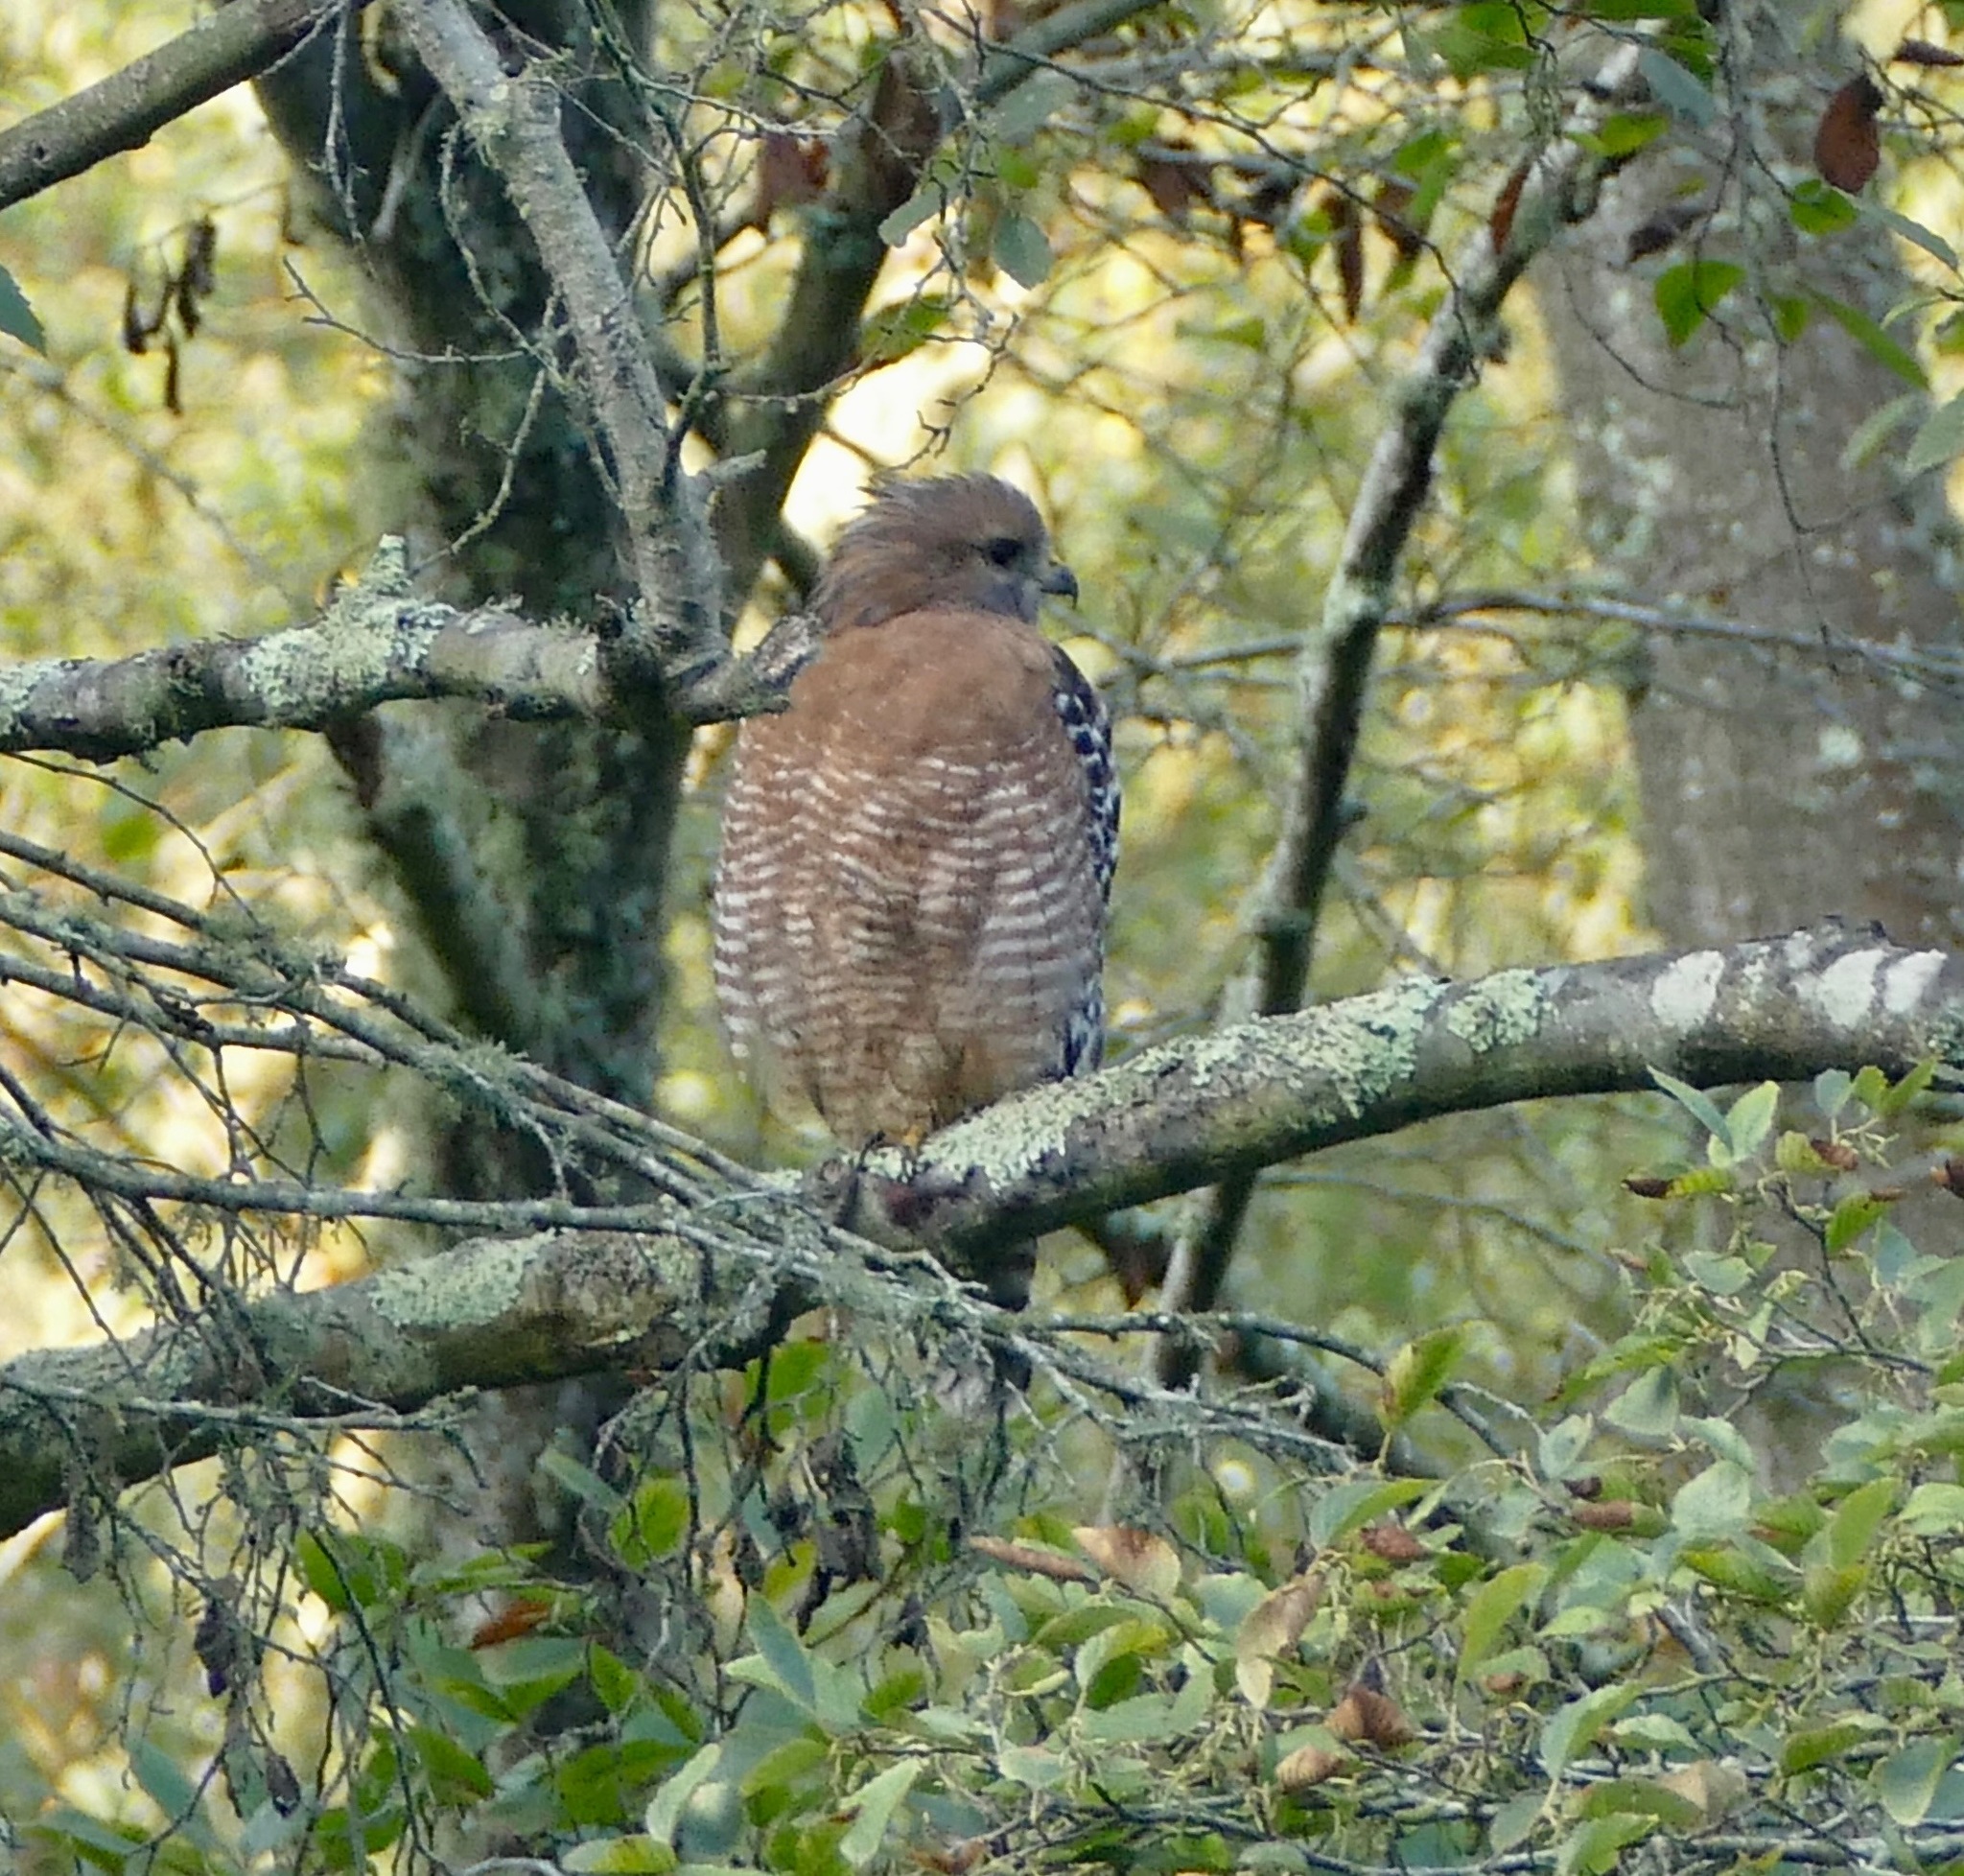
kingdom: Animalia
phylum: Chordata
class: Aves
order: Accipitriformes
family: Accipitridae
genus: Buteo
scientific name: Buteo lineatus
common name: Red-shouldered hawk
